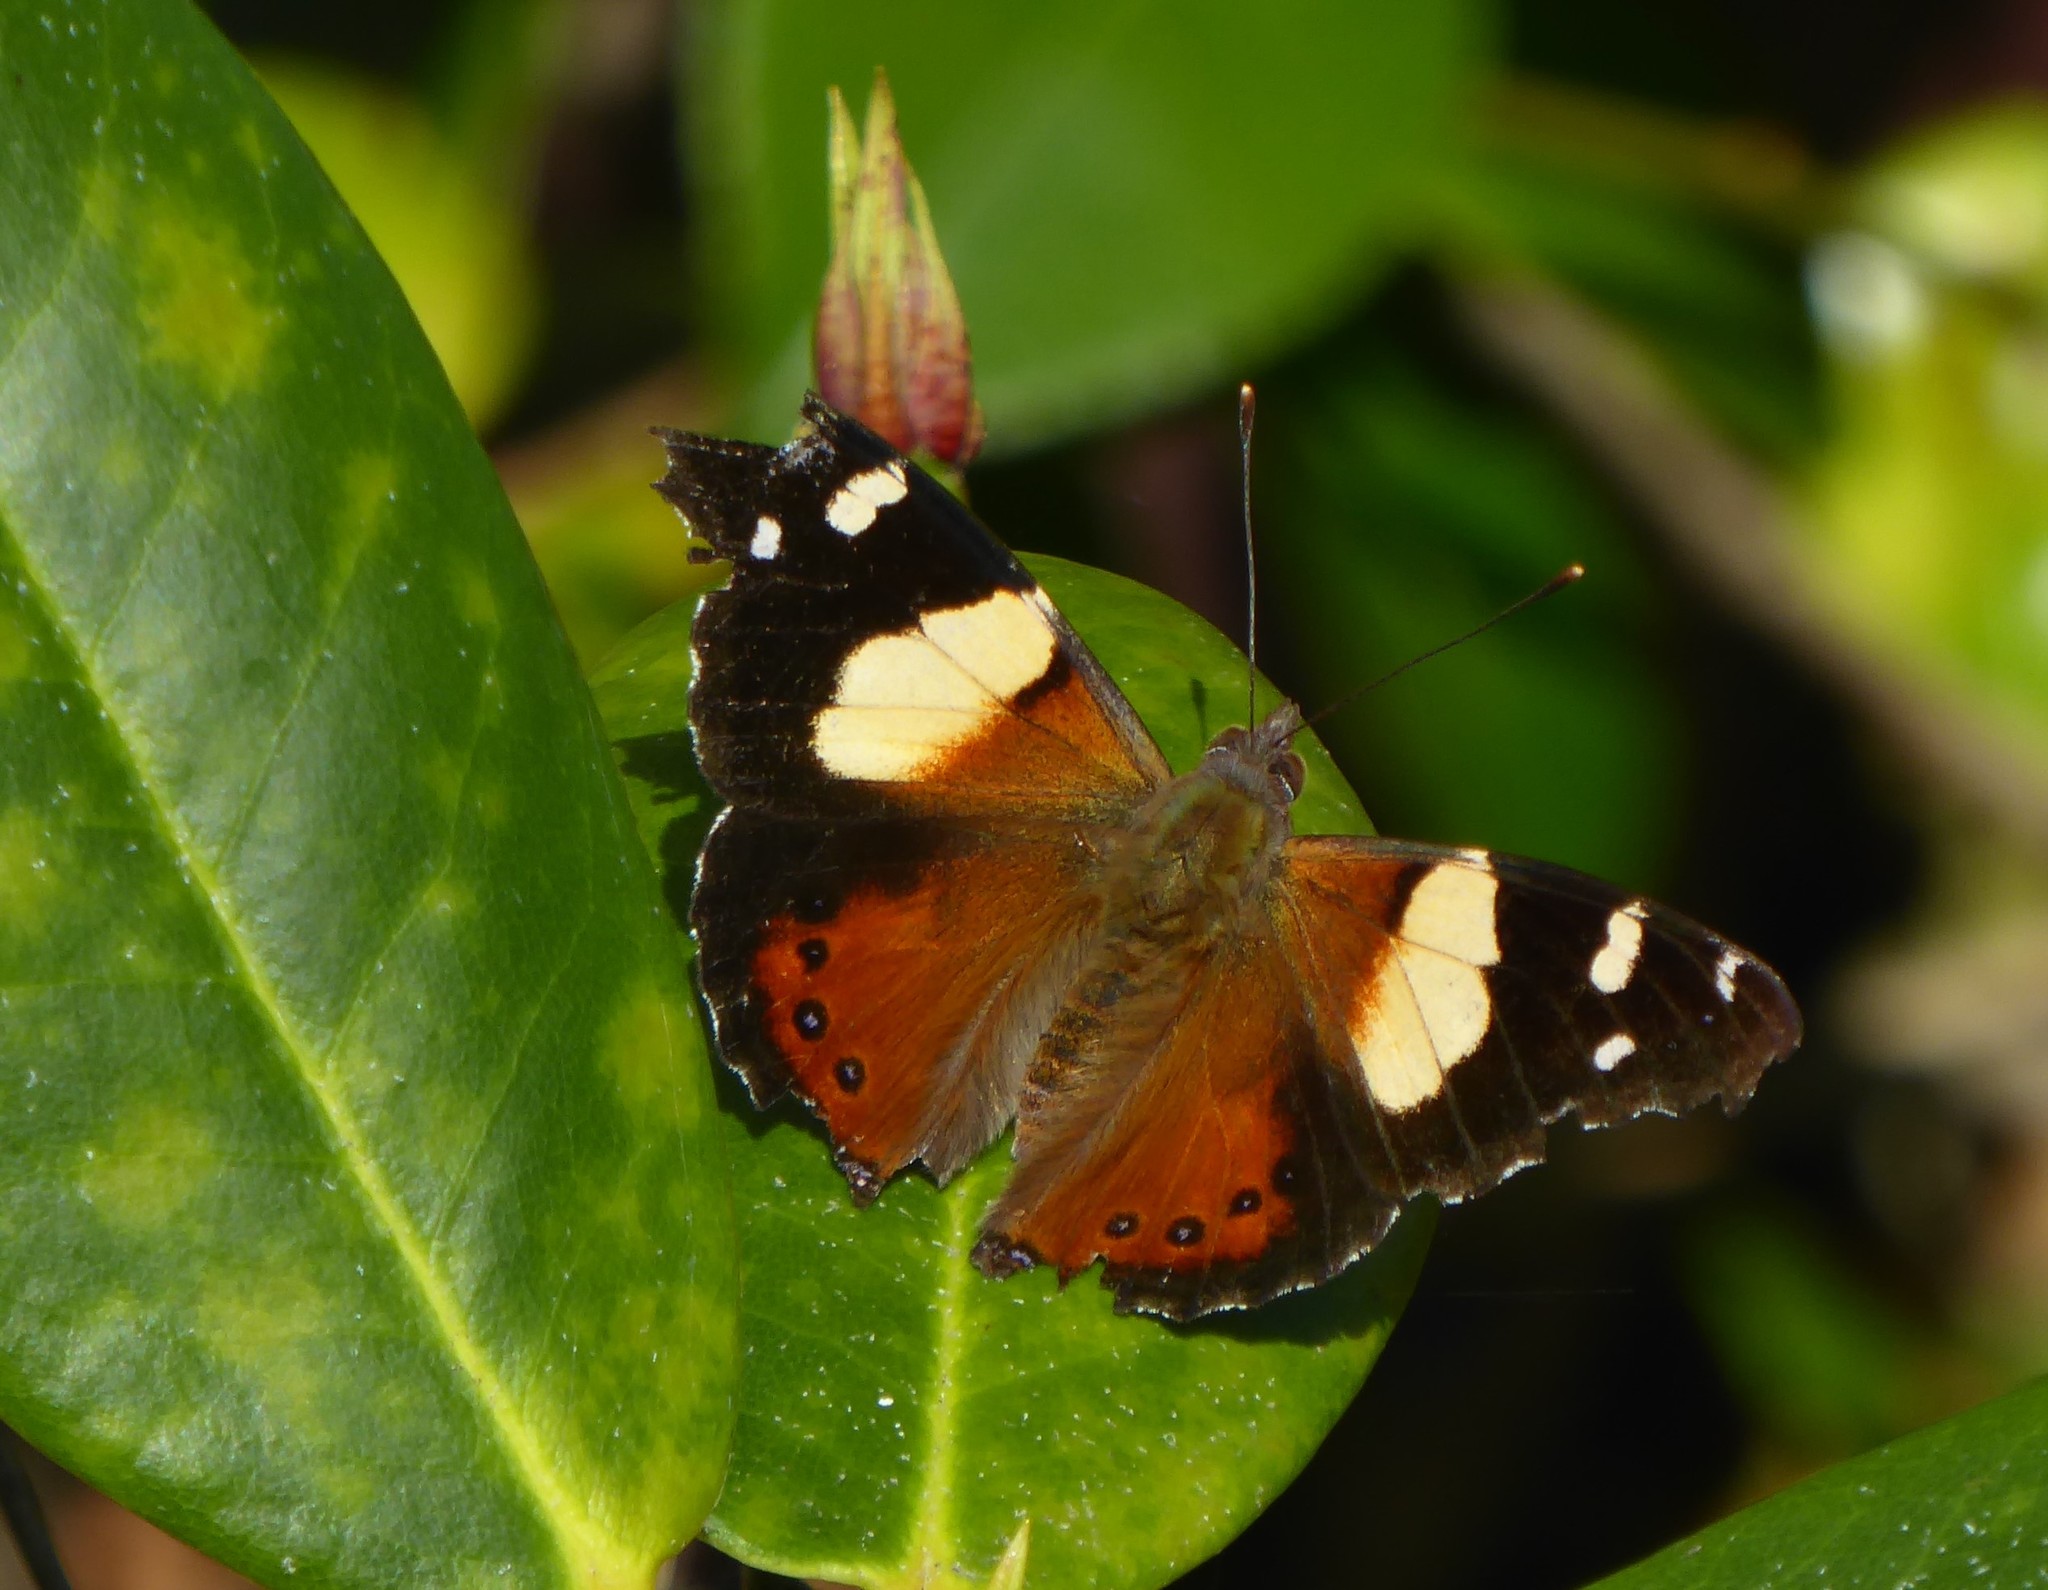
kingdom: Animalia
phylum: Arthropoda
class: Insecta
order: Lepidoptera
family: Nymphalidae
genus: Vanessa
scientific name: Vanessa itea
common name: Yellow admiral
